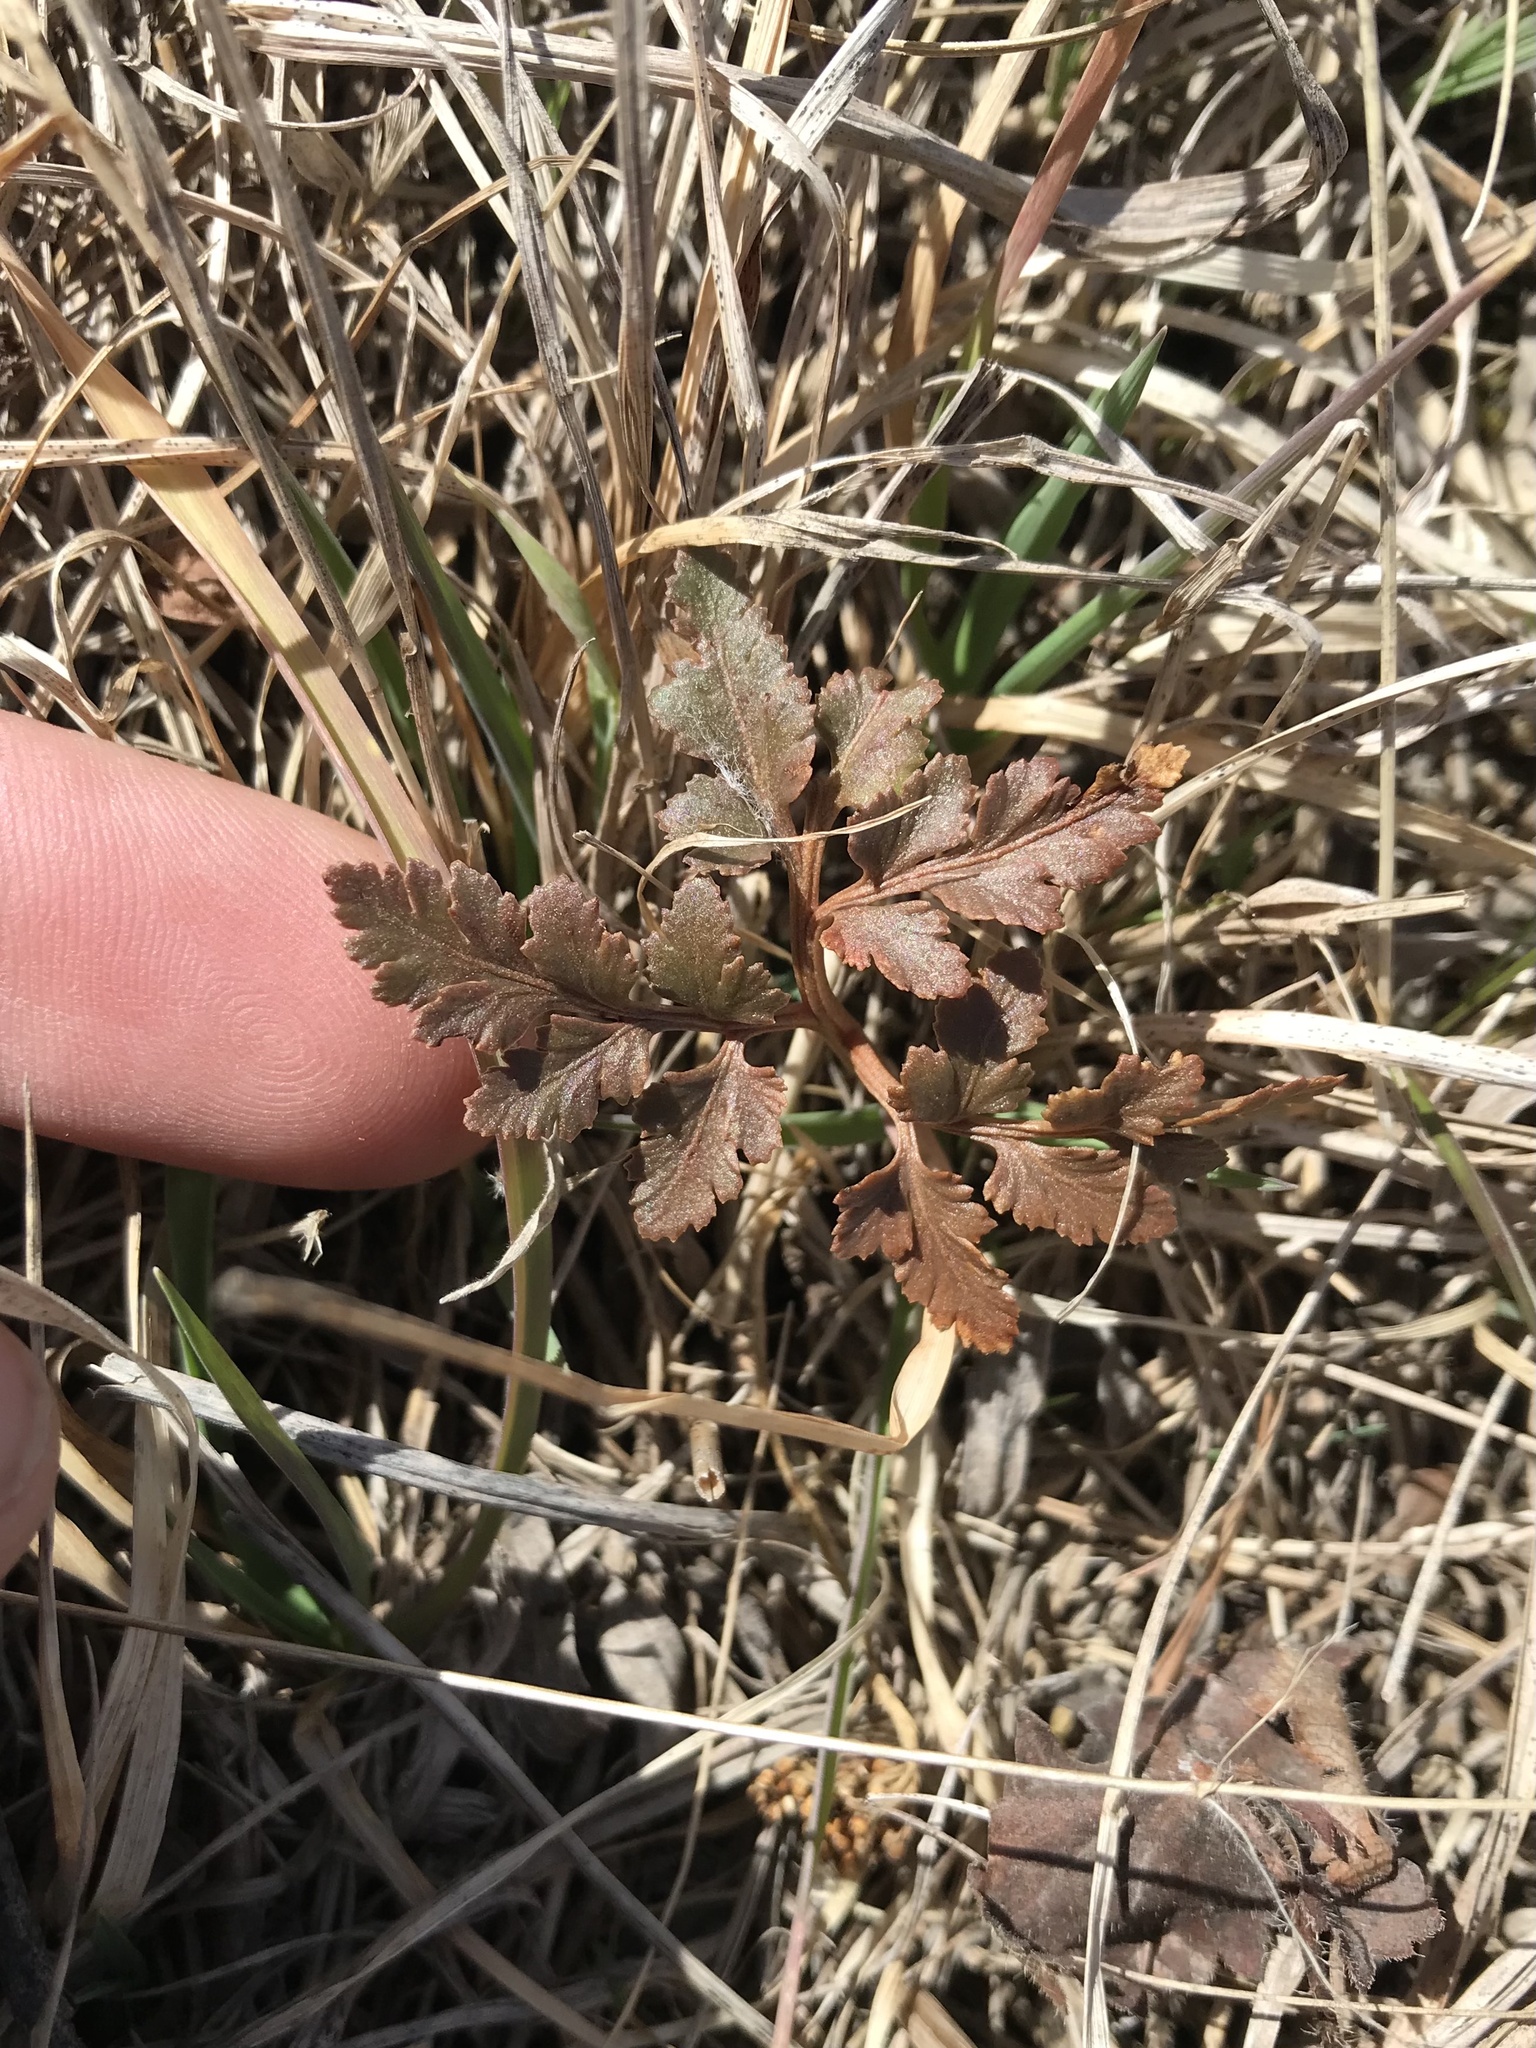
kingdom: Plantae
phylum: Tracheophyta
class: Polypodiopsida
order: Ophioglossales
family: Ophioglossaceae
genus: Sceptridium
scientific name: Sceptridium dissectum
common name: Cut-leaved grapefern
